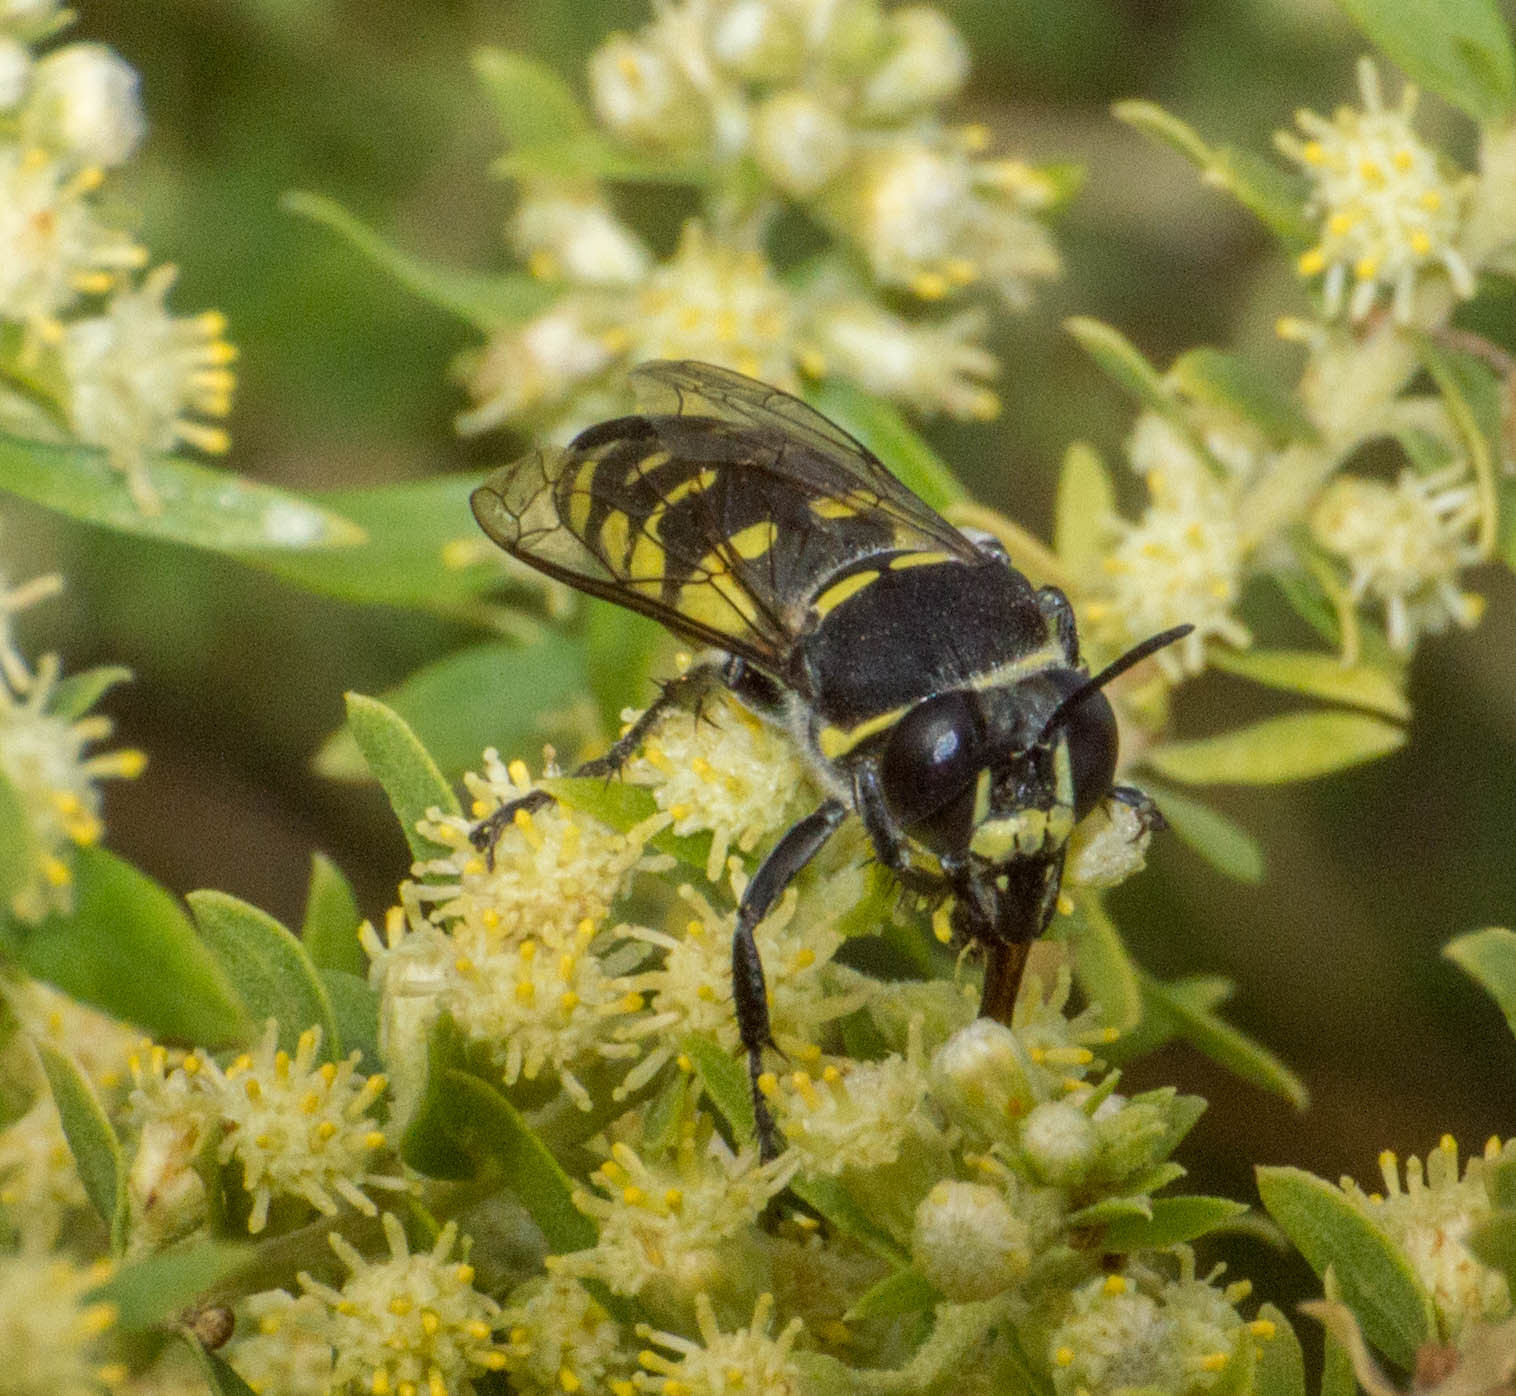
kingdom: Animalia
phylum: Arthropoda
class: Insecta
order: Hymenoptera
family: Crabronidae
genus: Stictia
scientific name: Stictia arcuata
